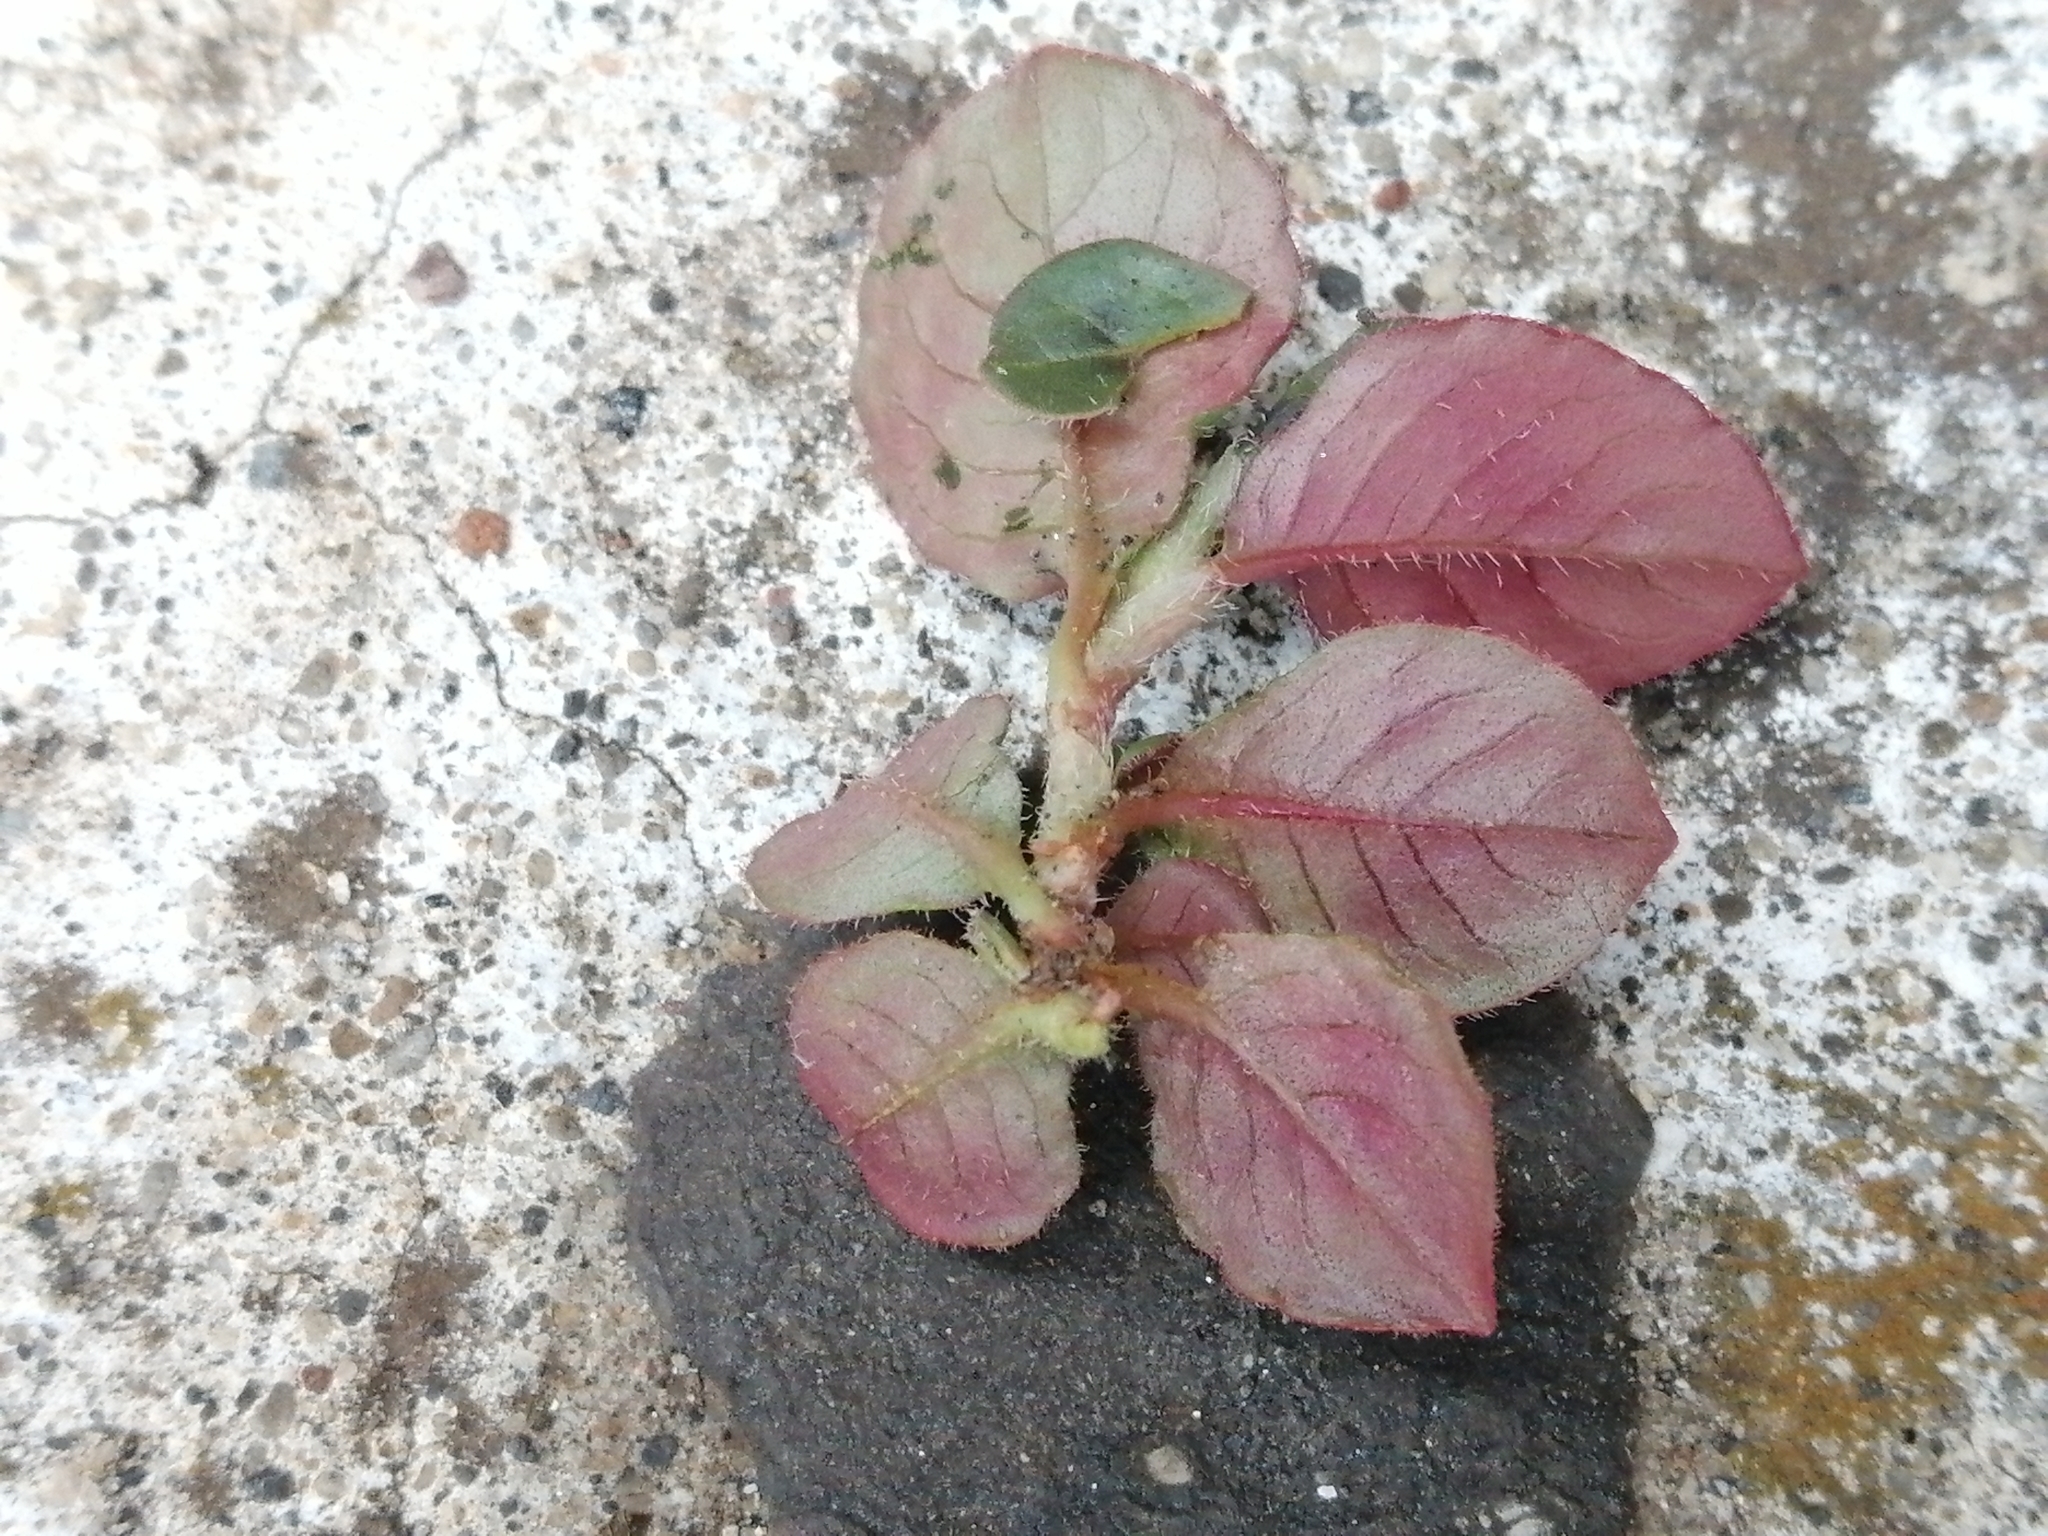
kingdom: Plantae
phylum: Tracheophyta
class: Magnoliopsida
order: Caryophyllales
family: Polygonaceae
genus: Persicaria
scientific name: Persicaria capitata
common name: Pinkhead smartweed
